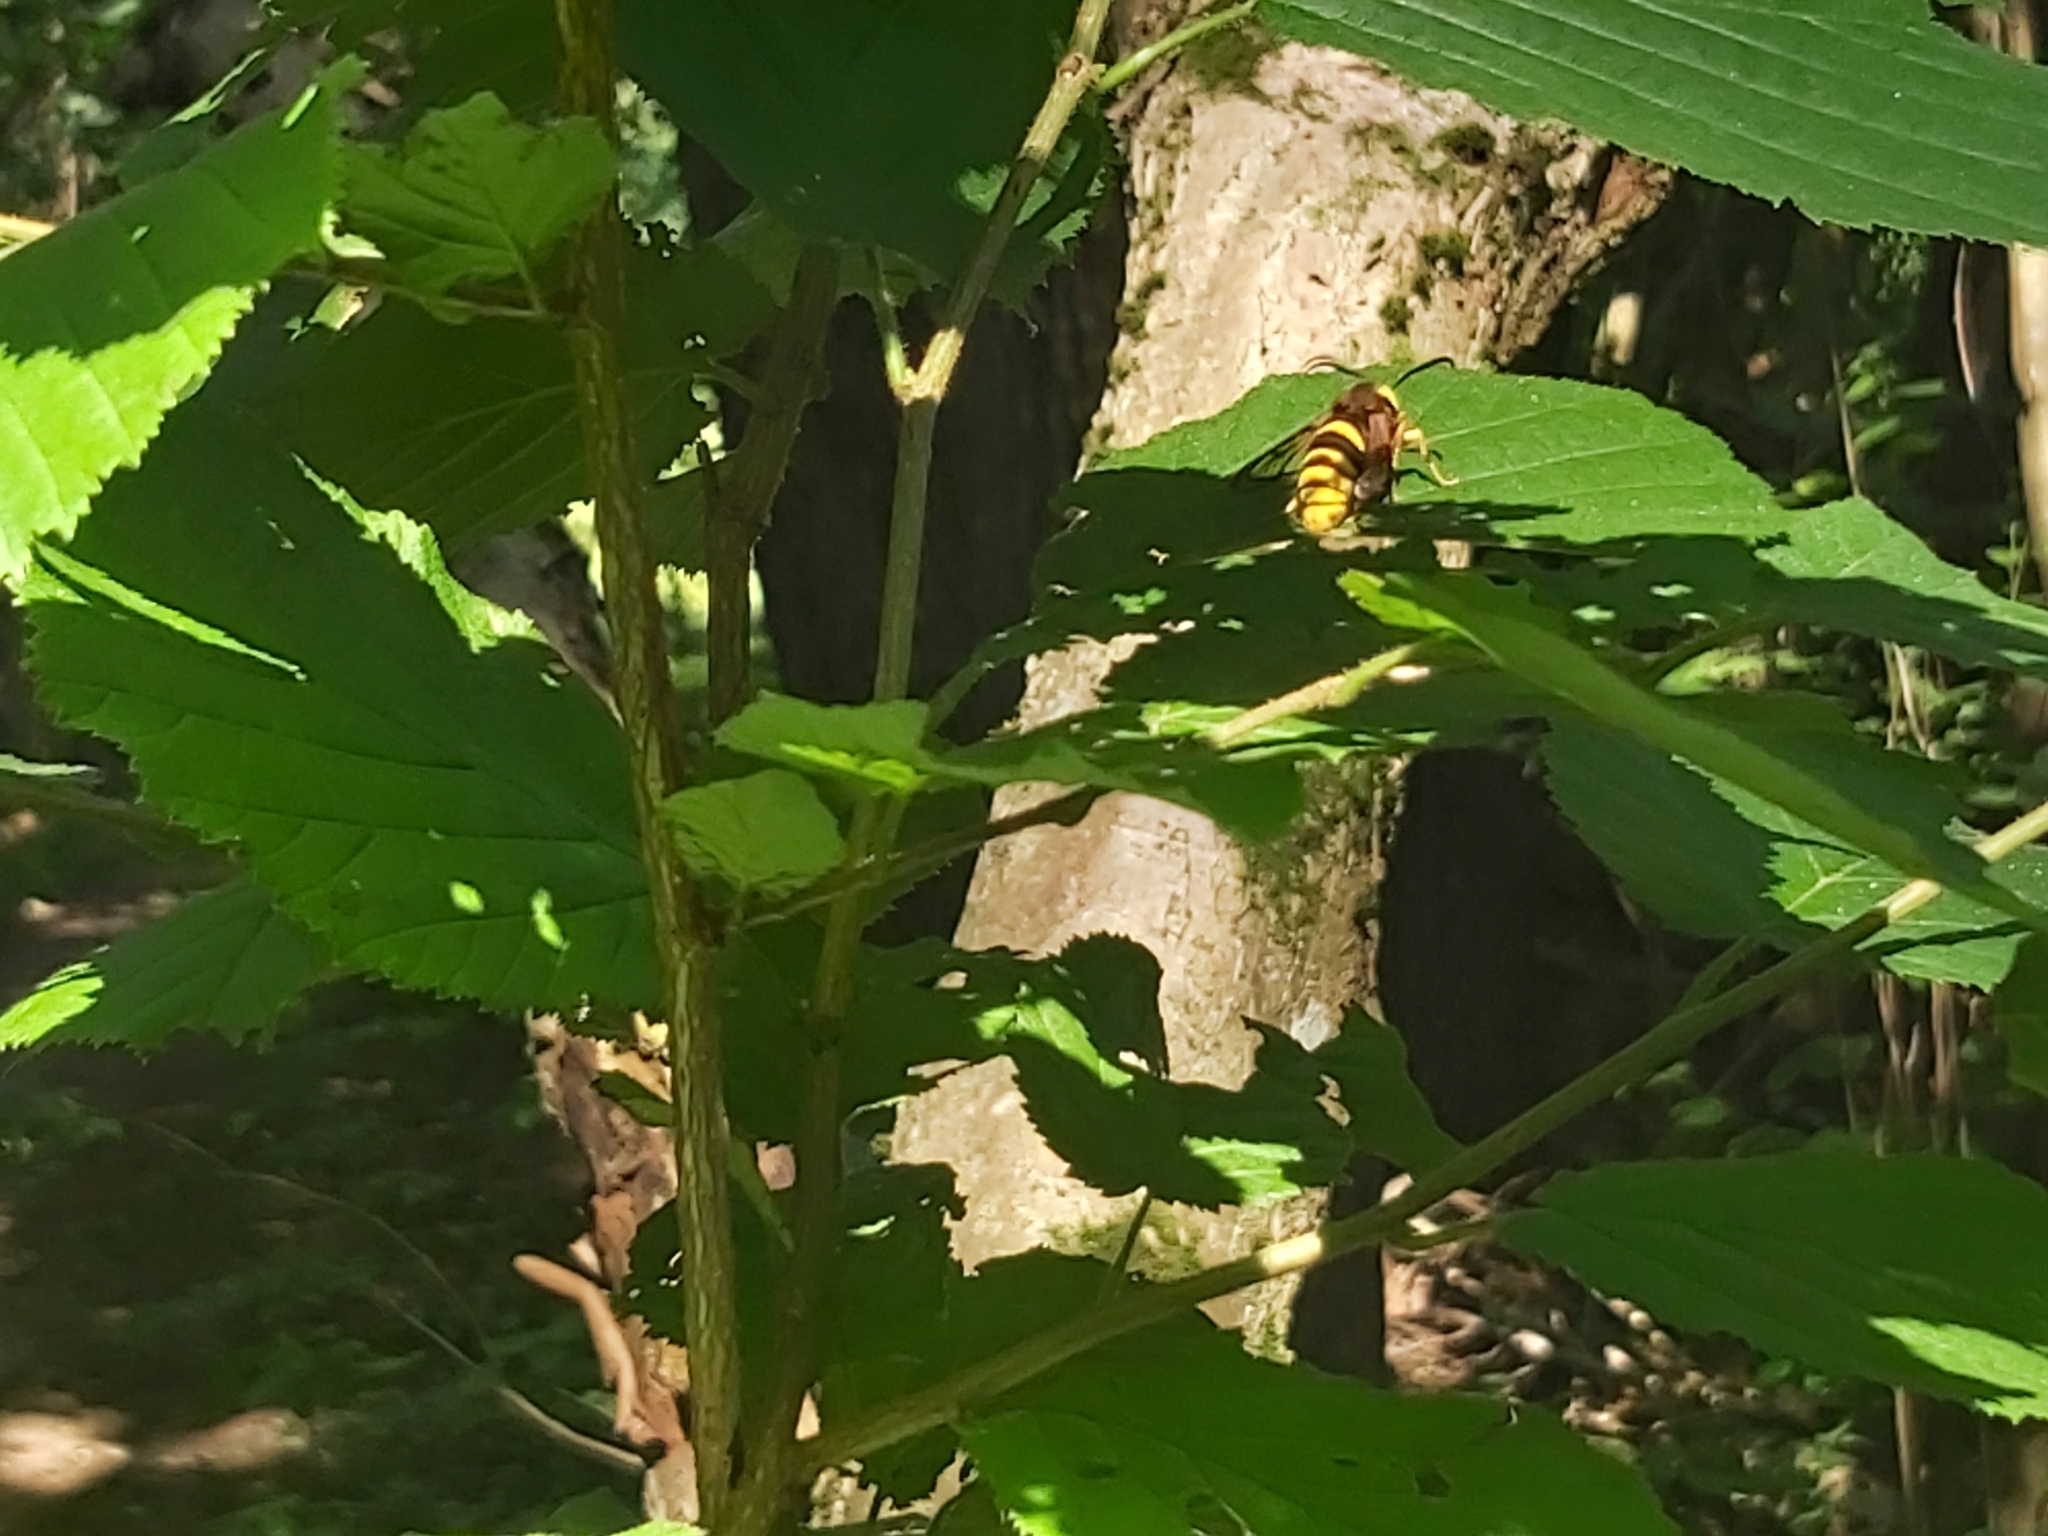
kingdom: Animalia
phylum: Arthropoda
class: Insecta
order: Lepidoptera
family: Sesiidae
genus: Sesia
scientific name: Sesia apiformis
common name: Hornet moth
